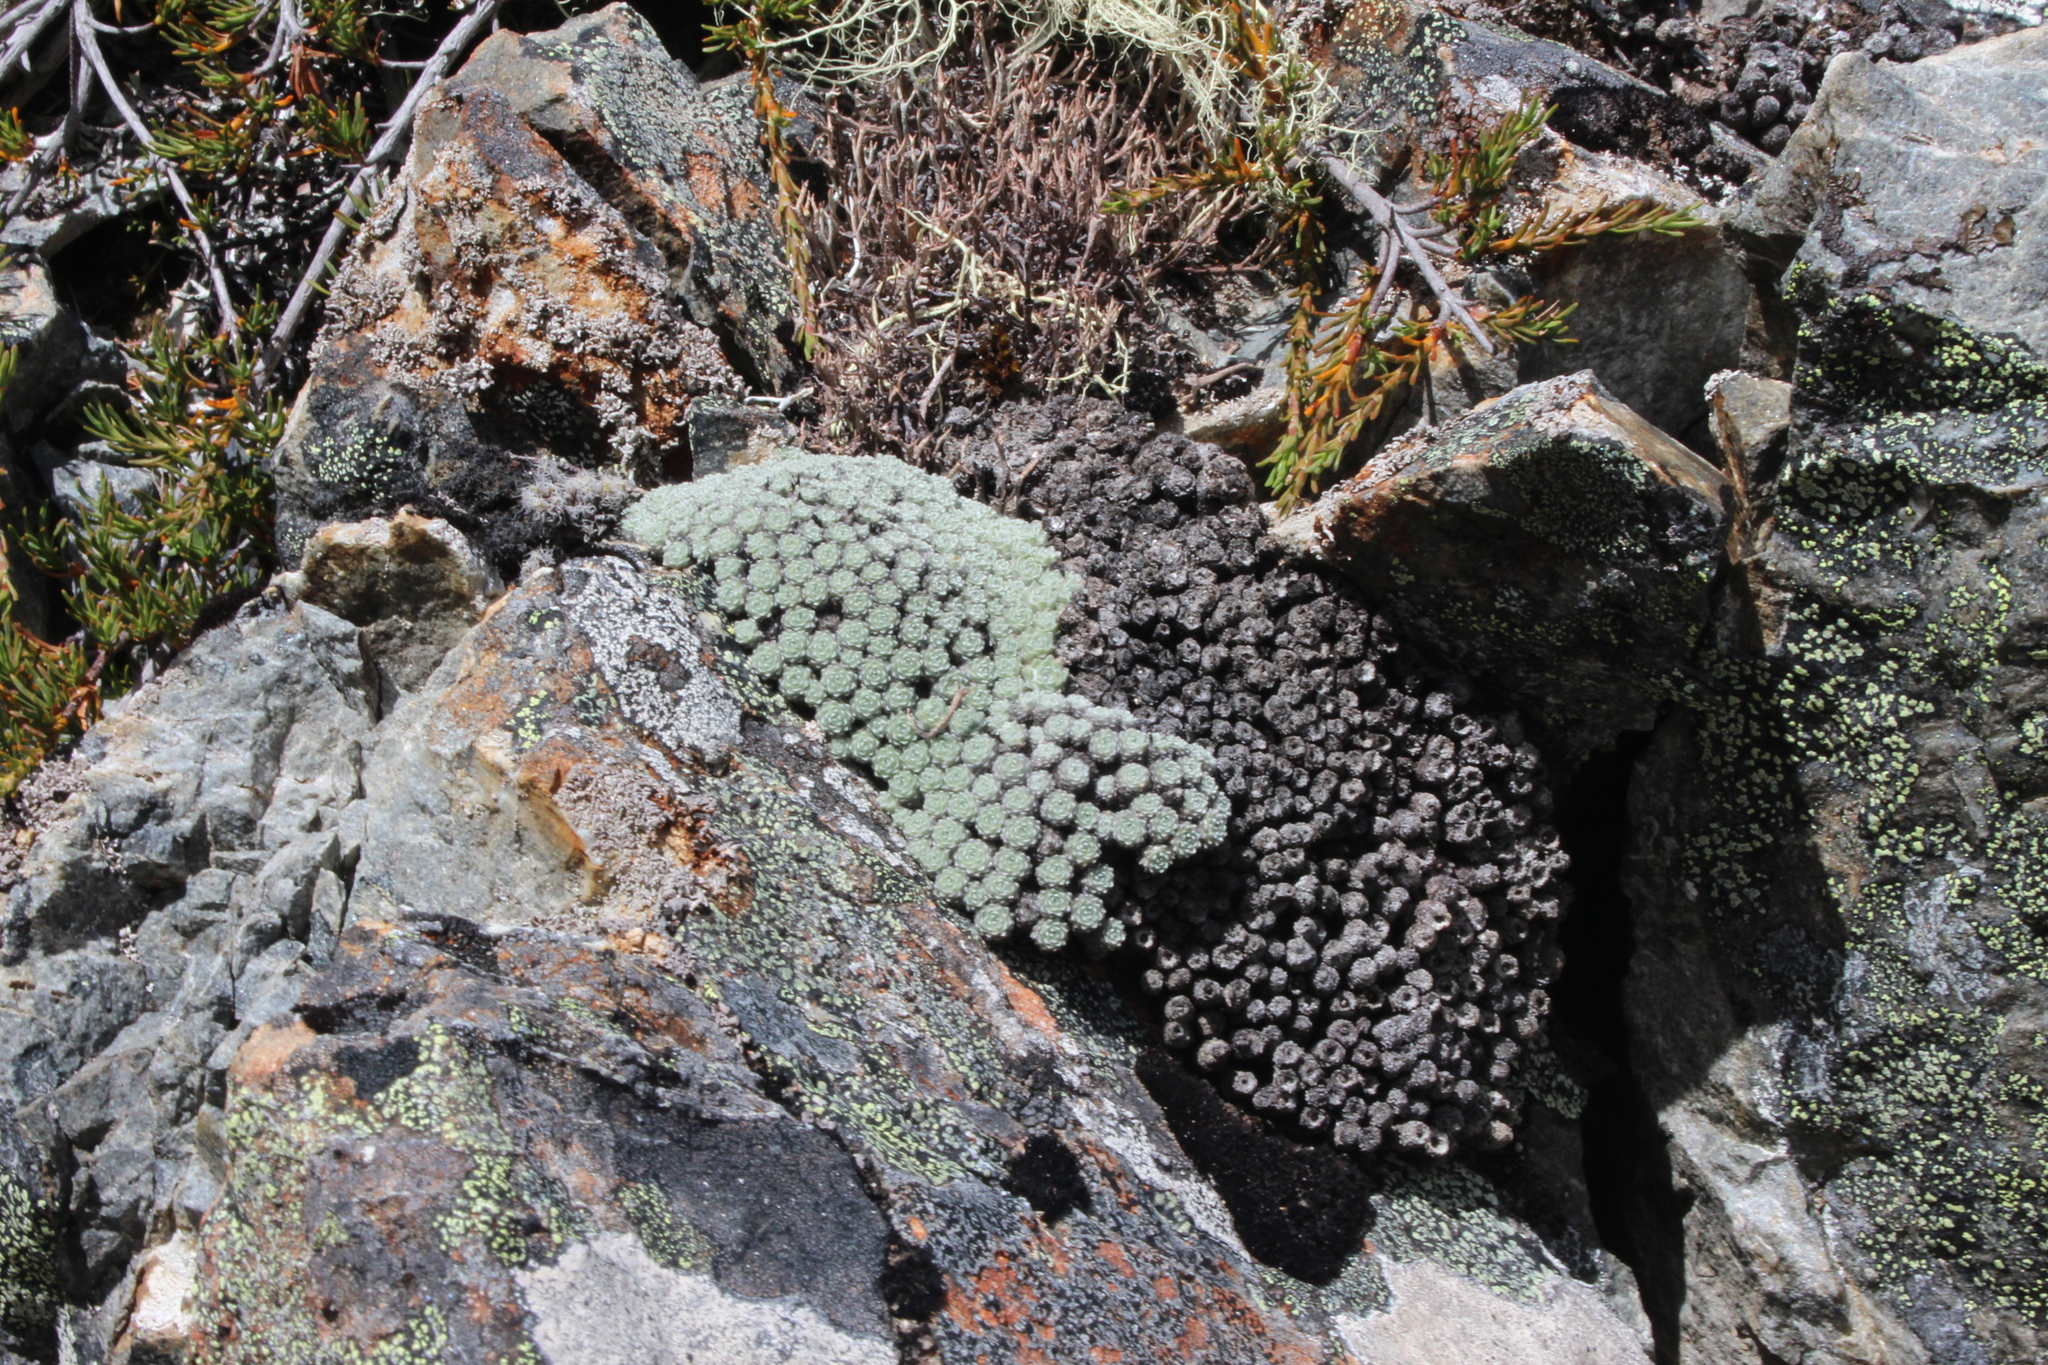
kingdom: Plantae
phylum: Tracheophyta
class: Magnoliopsida
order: Asterales
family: Asteraceae
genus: Raoulia
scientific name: Raoulia mammillaris
